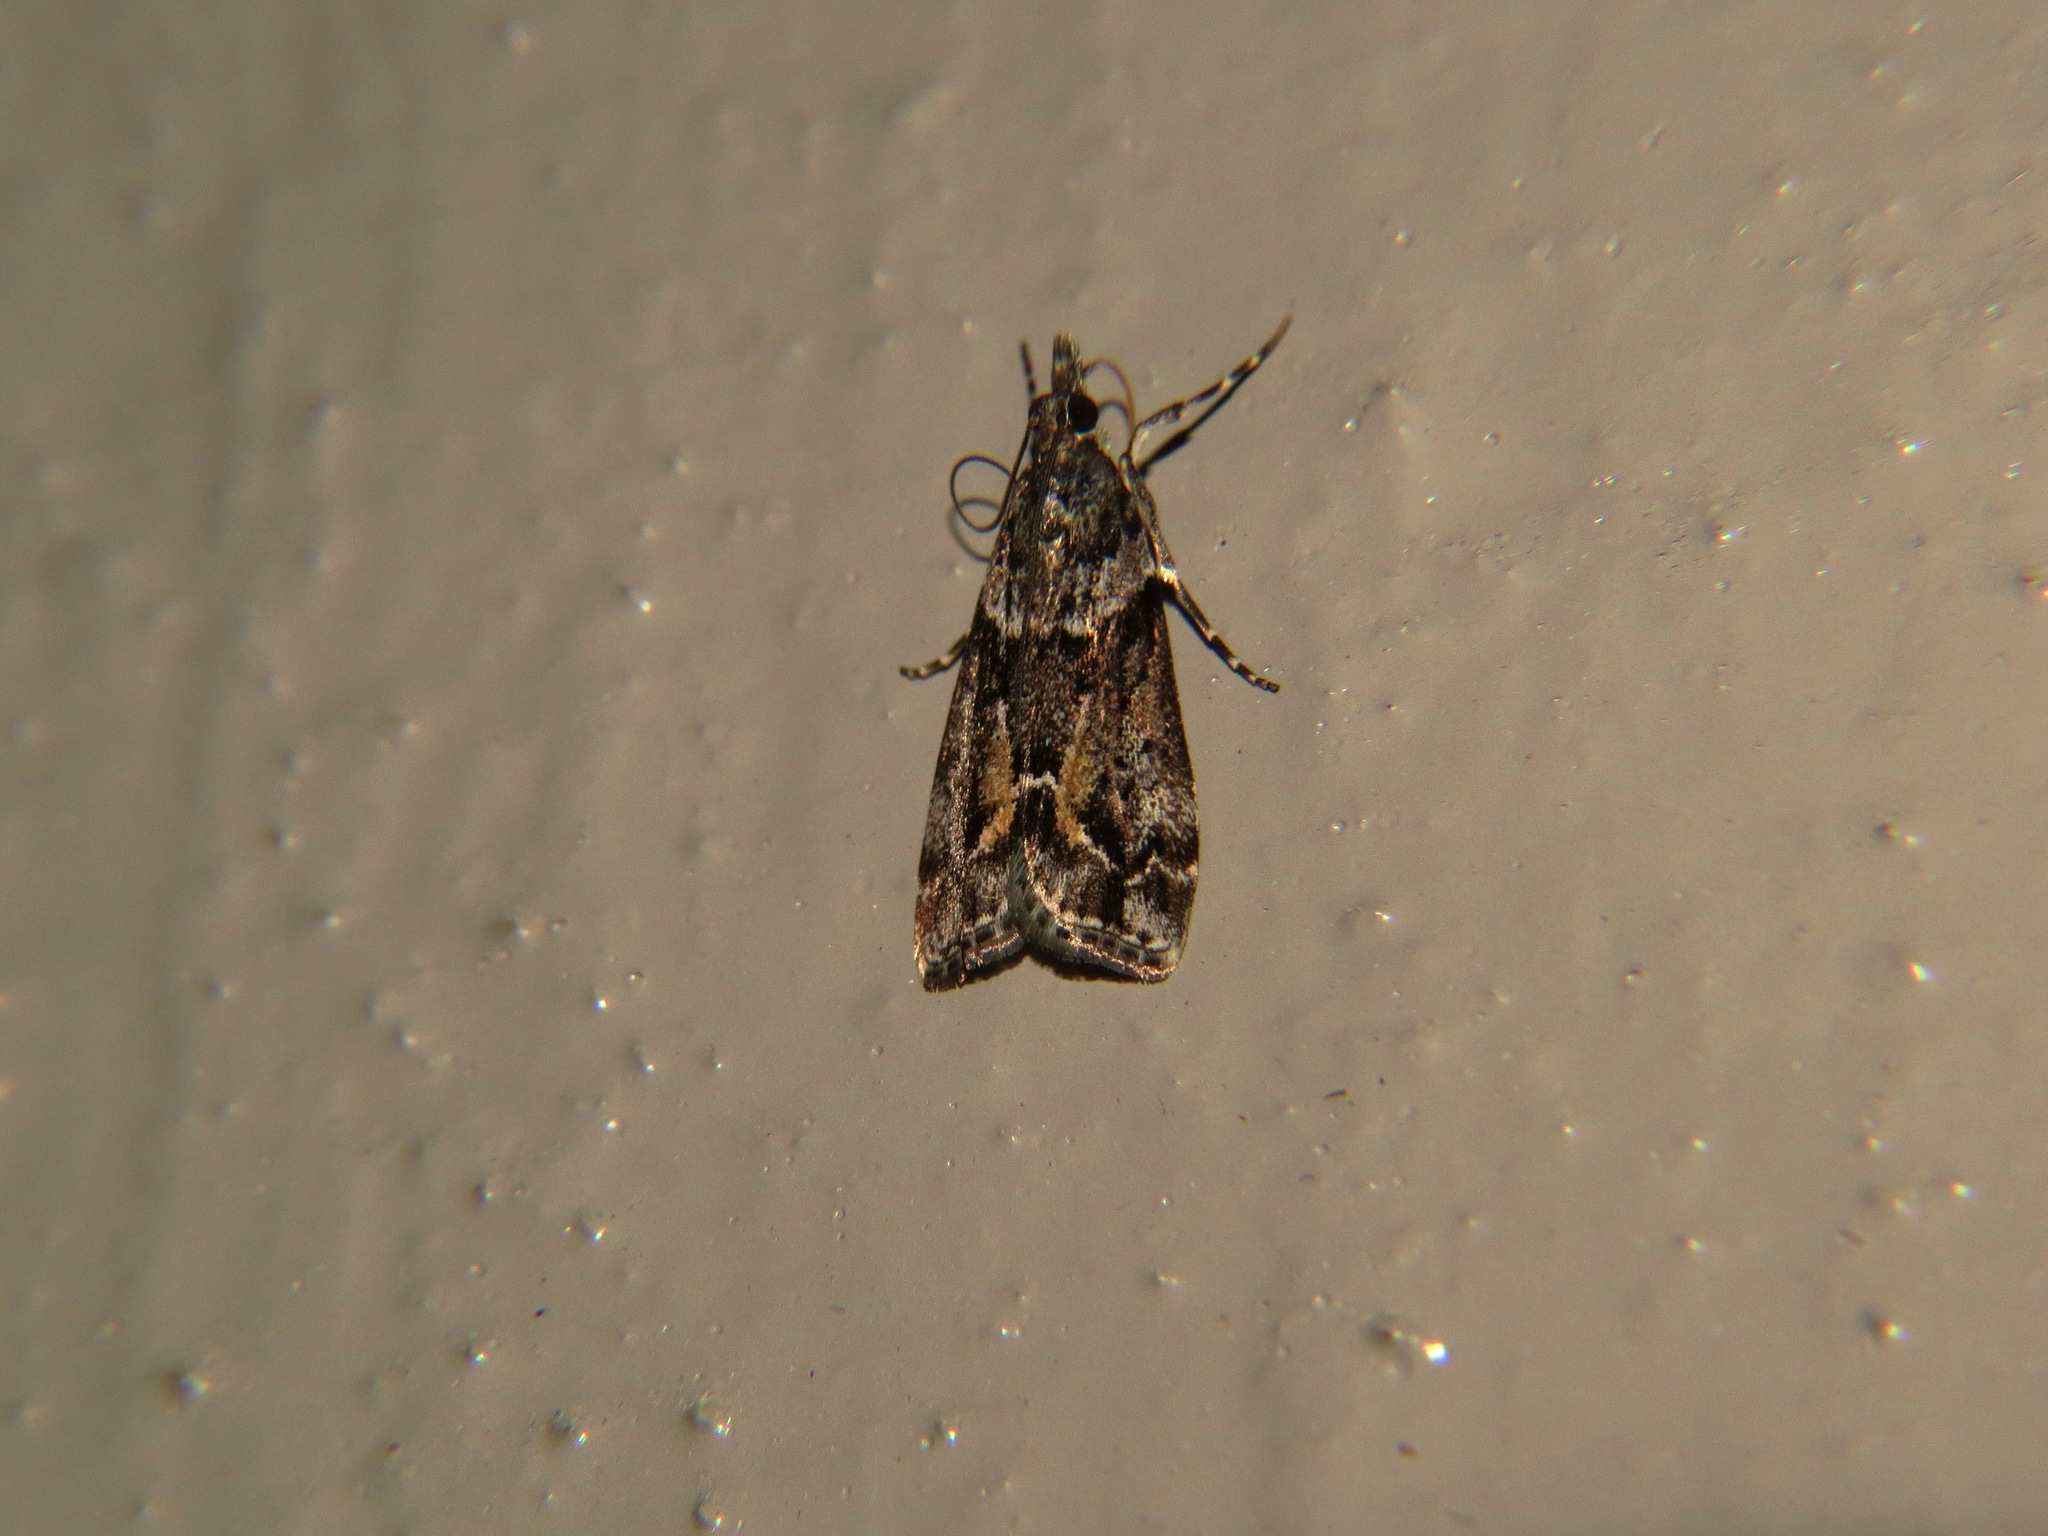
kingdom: Animalia
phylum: Arthropoda
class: Insecta
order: Lepidoptera
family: Crambidae
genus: Eudonia
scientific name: Eudonia submarginalis
